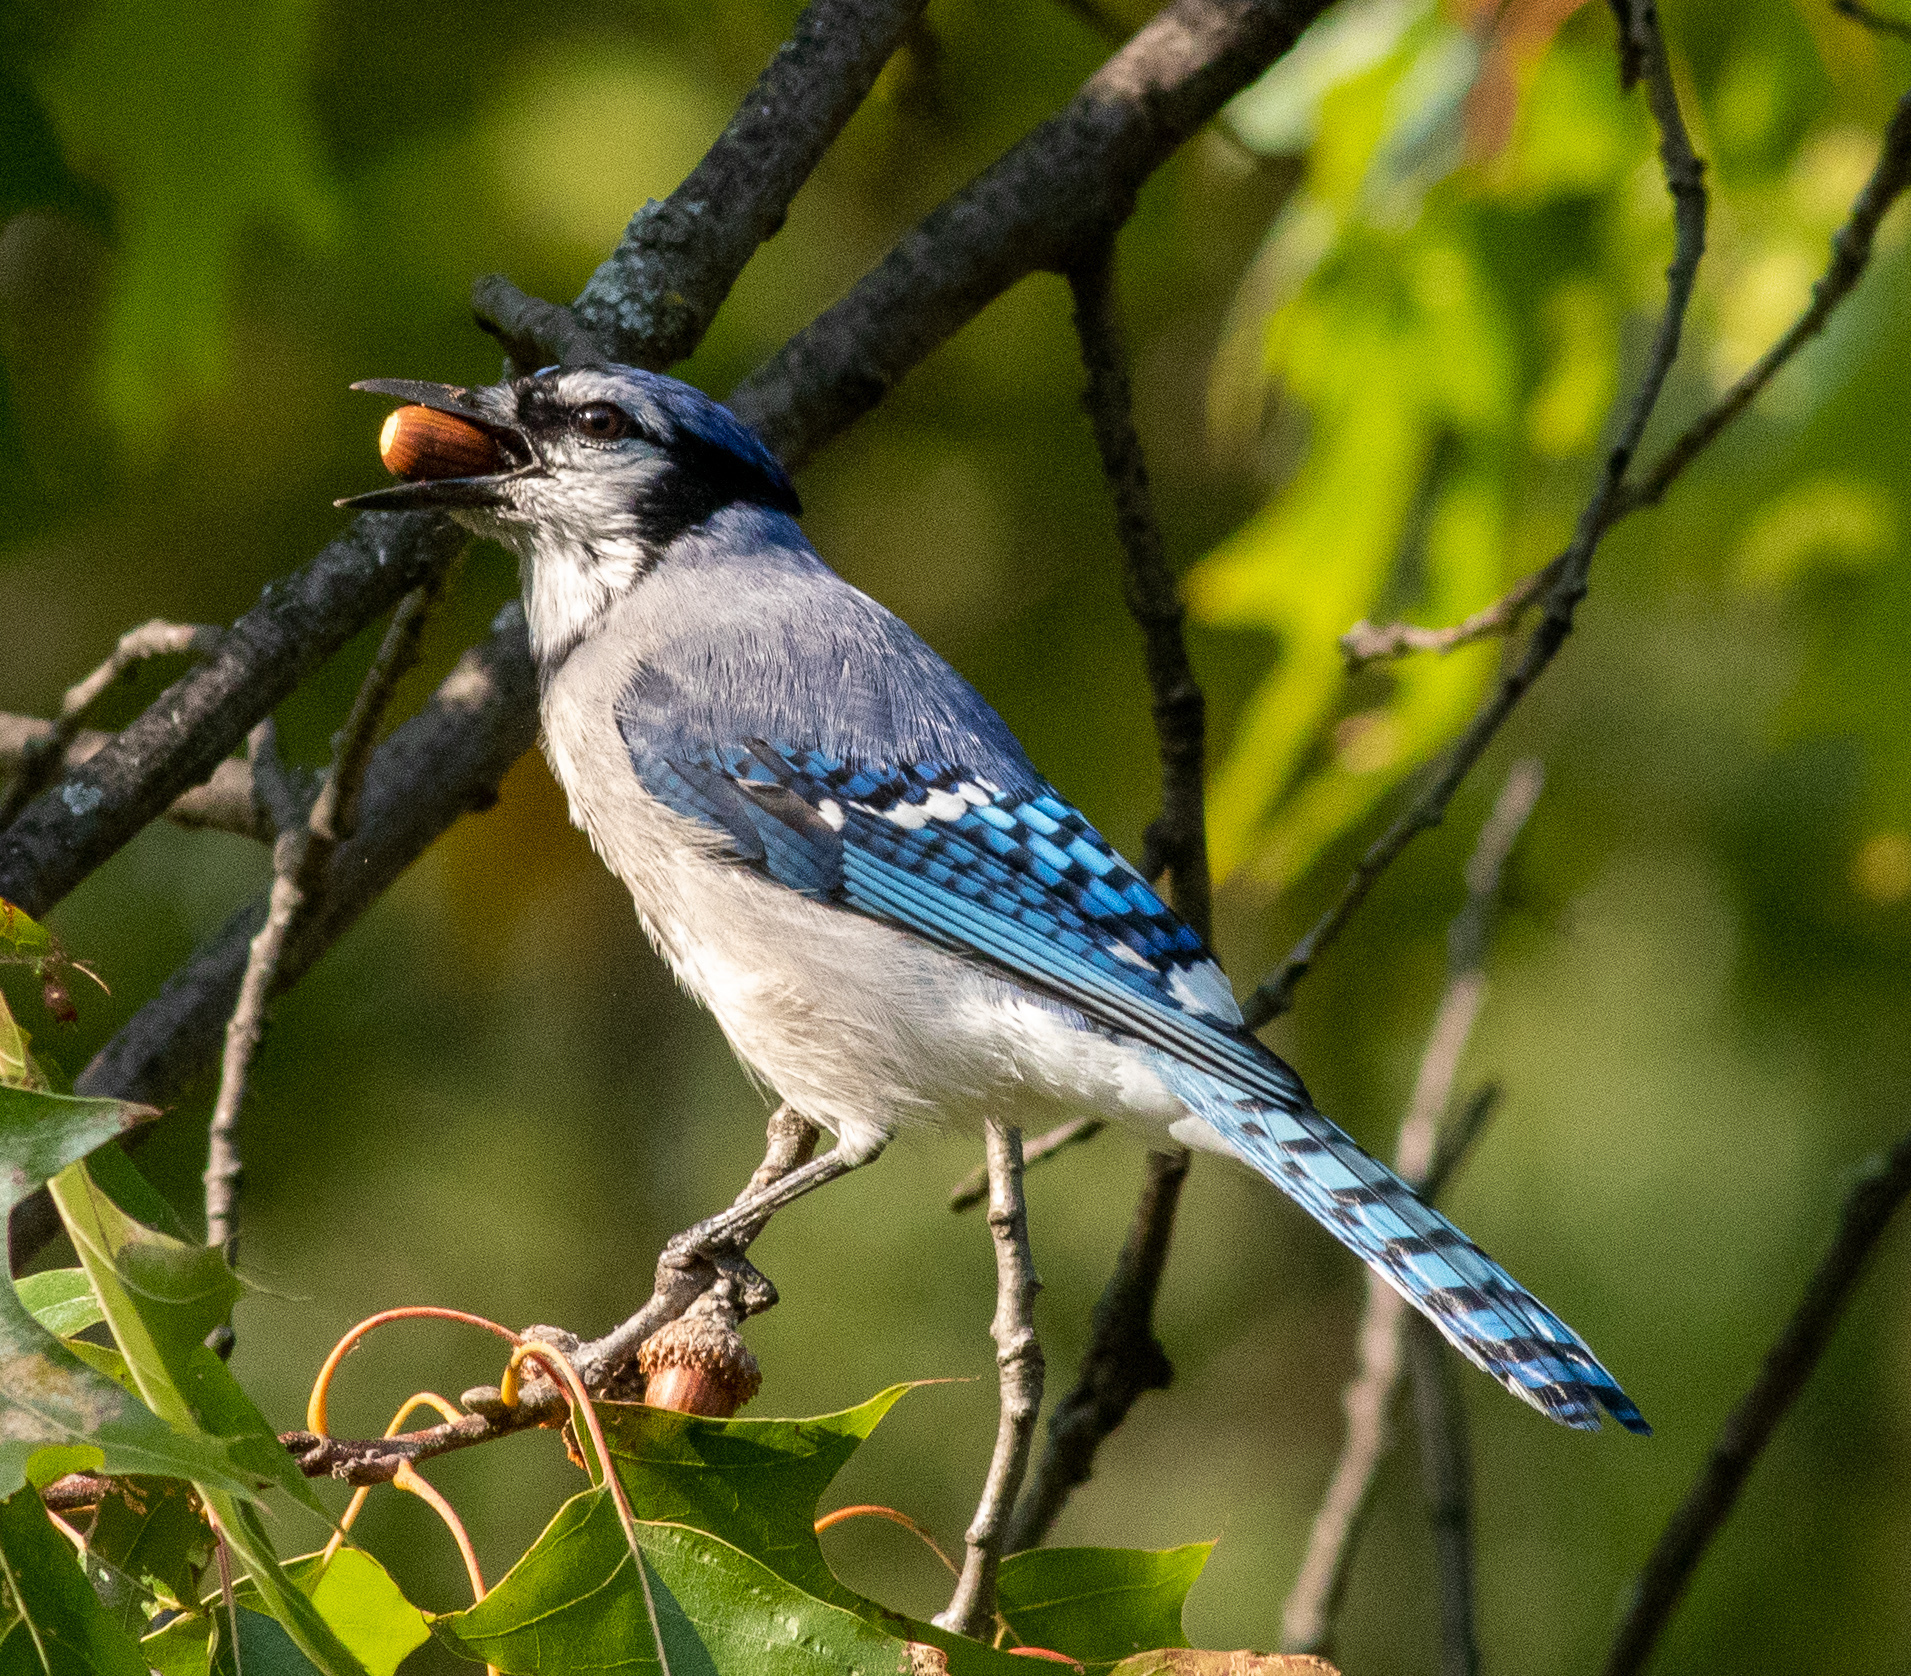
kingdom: Animalia
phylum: Chordata
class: Aves
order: Passeriformes
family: Corvidae
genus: Cyanocitta
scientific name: Cyanocitta cristata
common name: Blue jay
